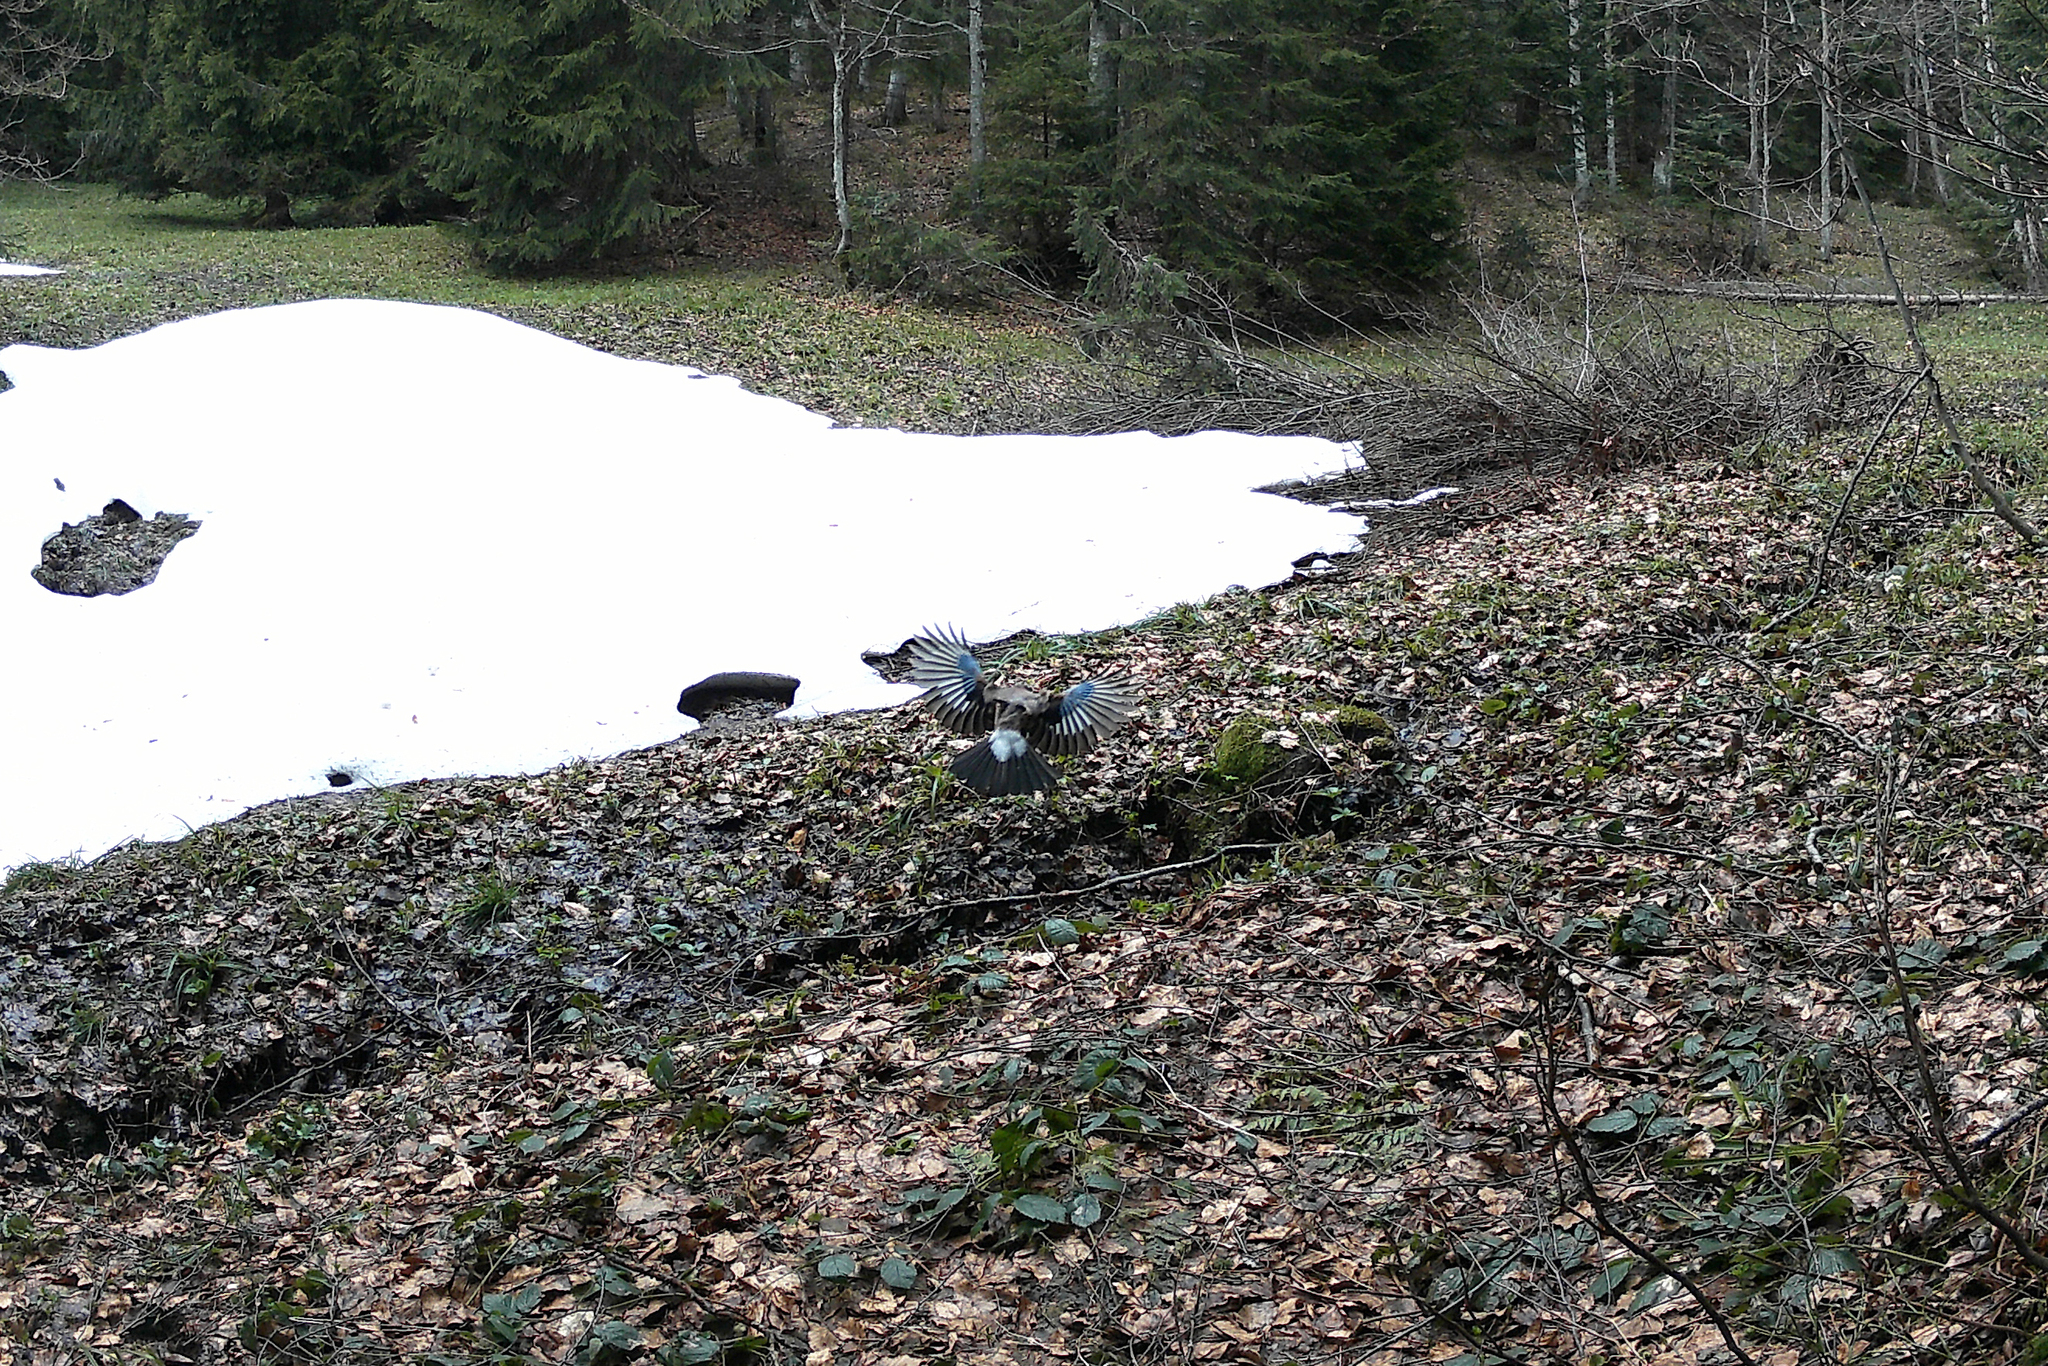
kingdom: Animalia
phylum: Chordata
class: Aves
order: Passeriformes
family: Corvidae
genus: Garrulus
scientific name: Garrulus glandarius
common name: Eurasian jay
